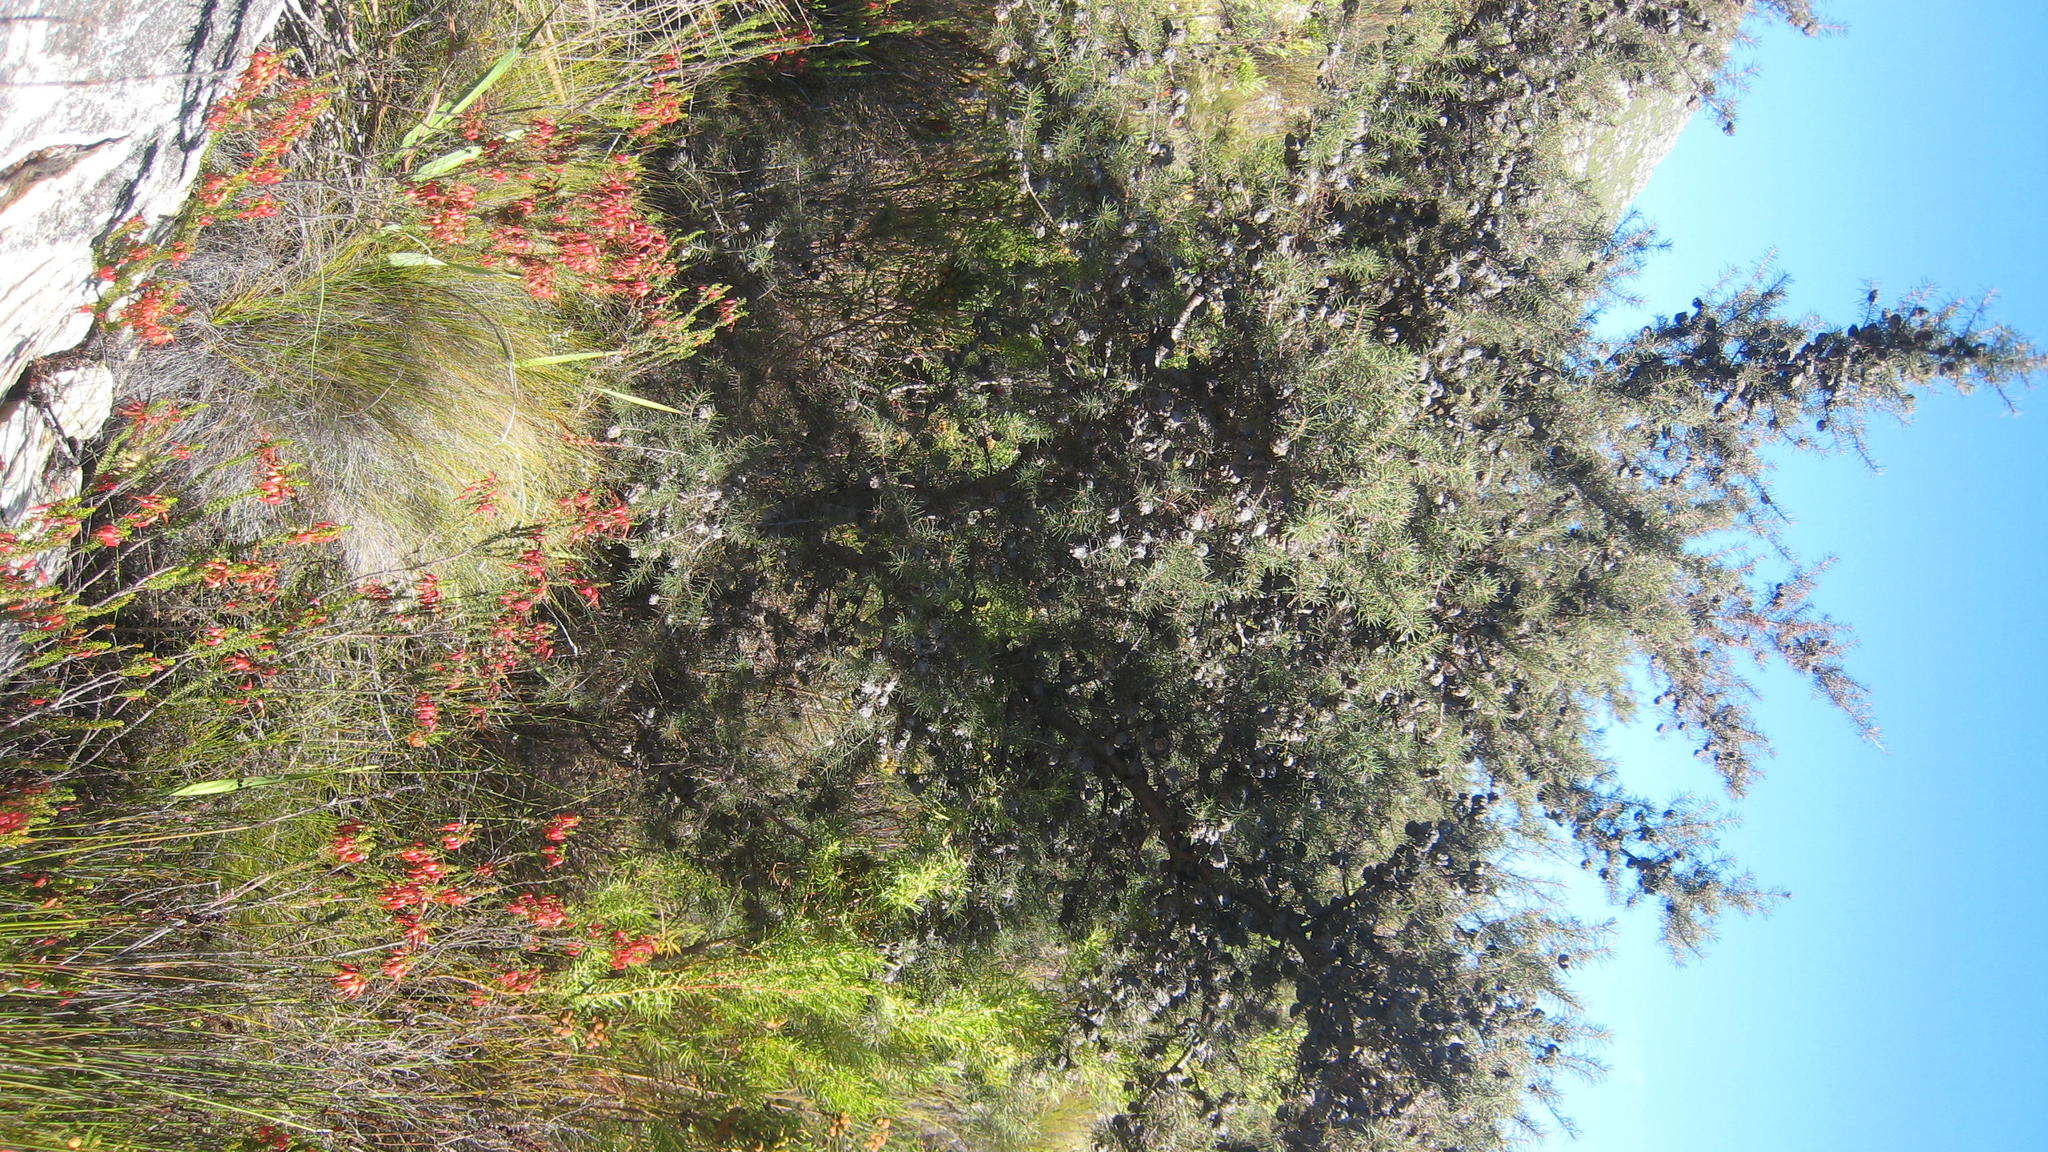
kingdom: Plantae
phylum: Tracheophyta
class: Magnoliopsida
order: Proteales
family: Proteaceae
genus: Hakea
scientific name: Hakea sericea
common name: Needle bush
